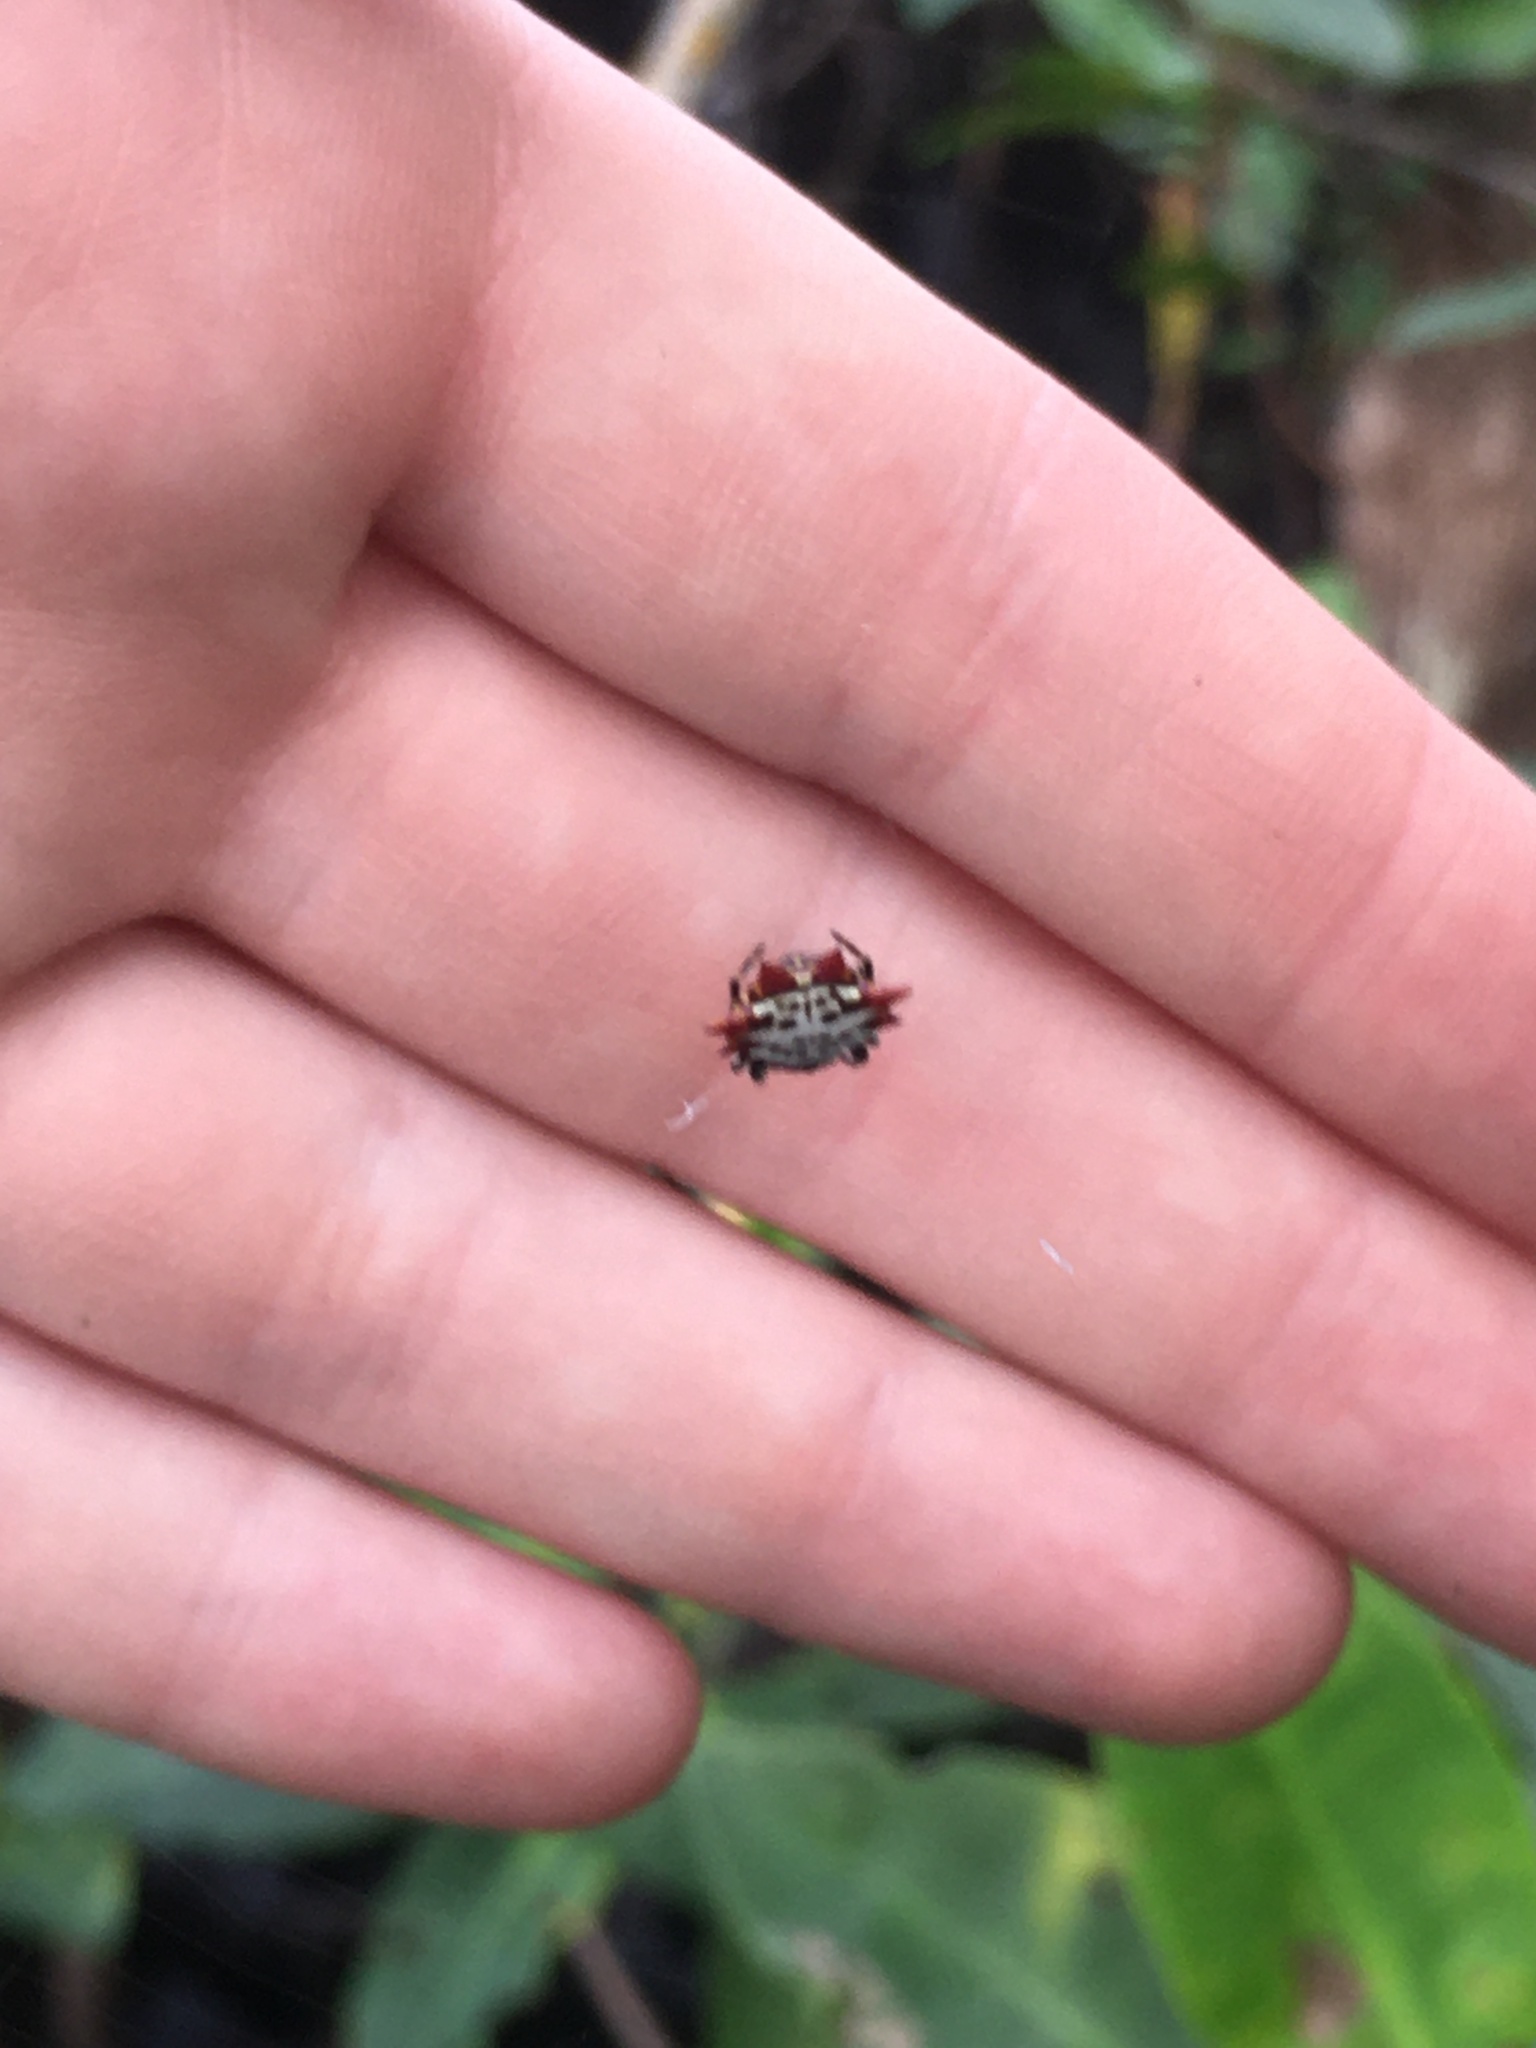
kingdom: Animalia
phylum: Arthropoda
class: Arachnida
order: Araneae
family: Araneidae
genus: Gasteracantha
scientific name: Gasteracantha cancriformis
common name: Orb weavers
